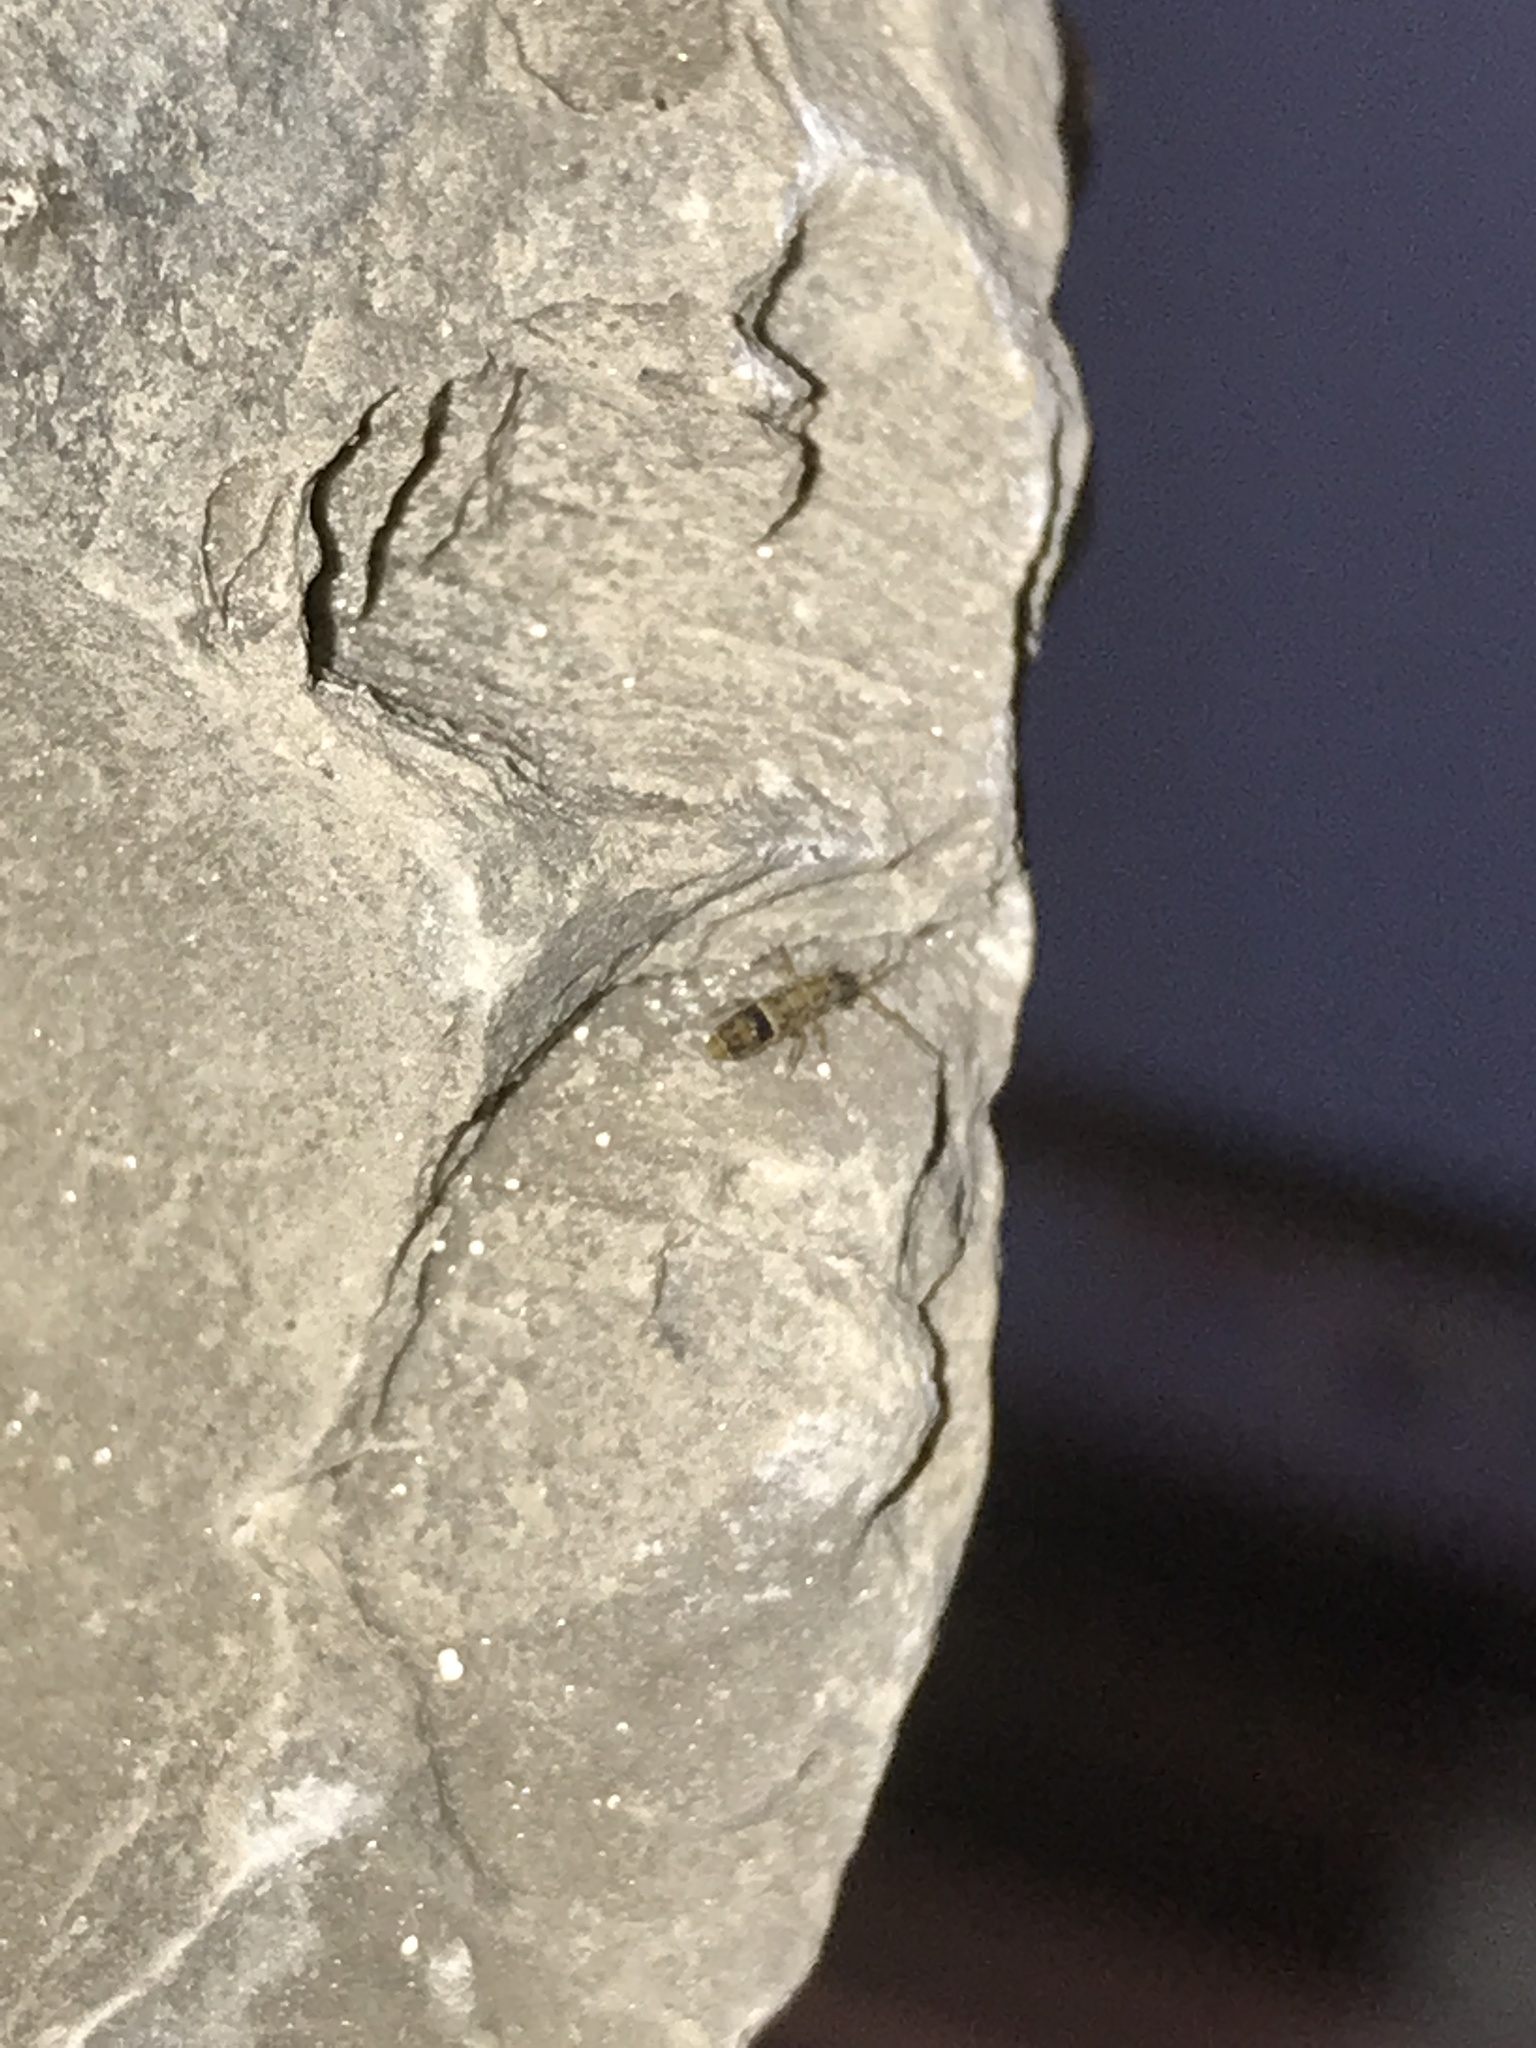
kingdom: Animalia
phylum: Arthropoda
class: Collembola
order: Entomobryomorpha
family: Orchesellidae
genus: Orchesella
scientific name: Orchesella cincta
